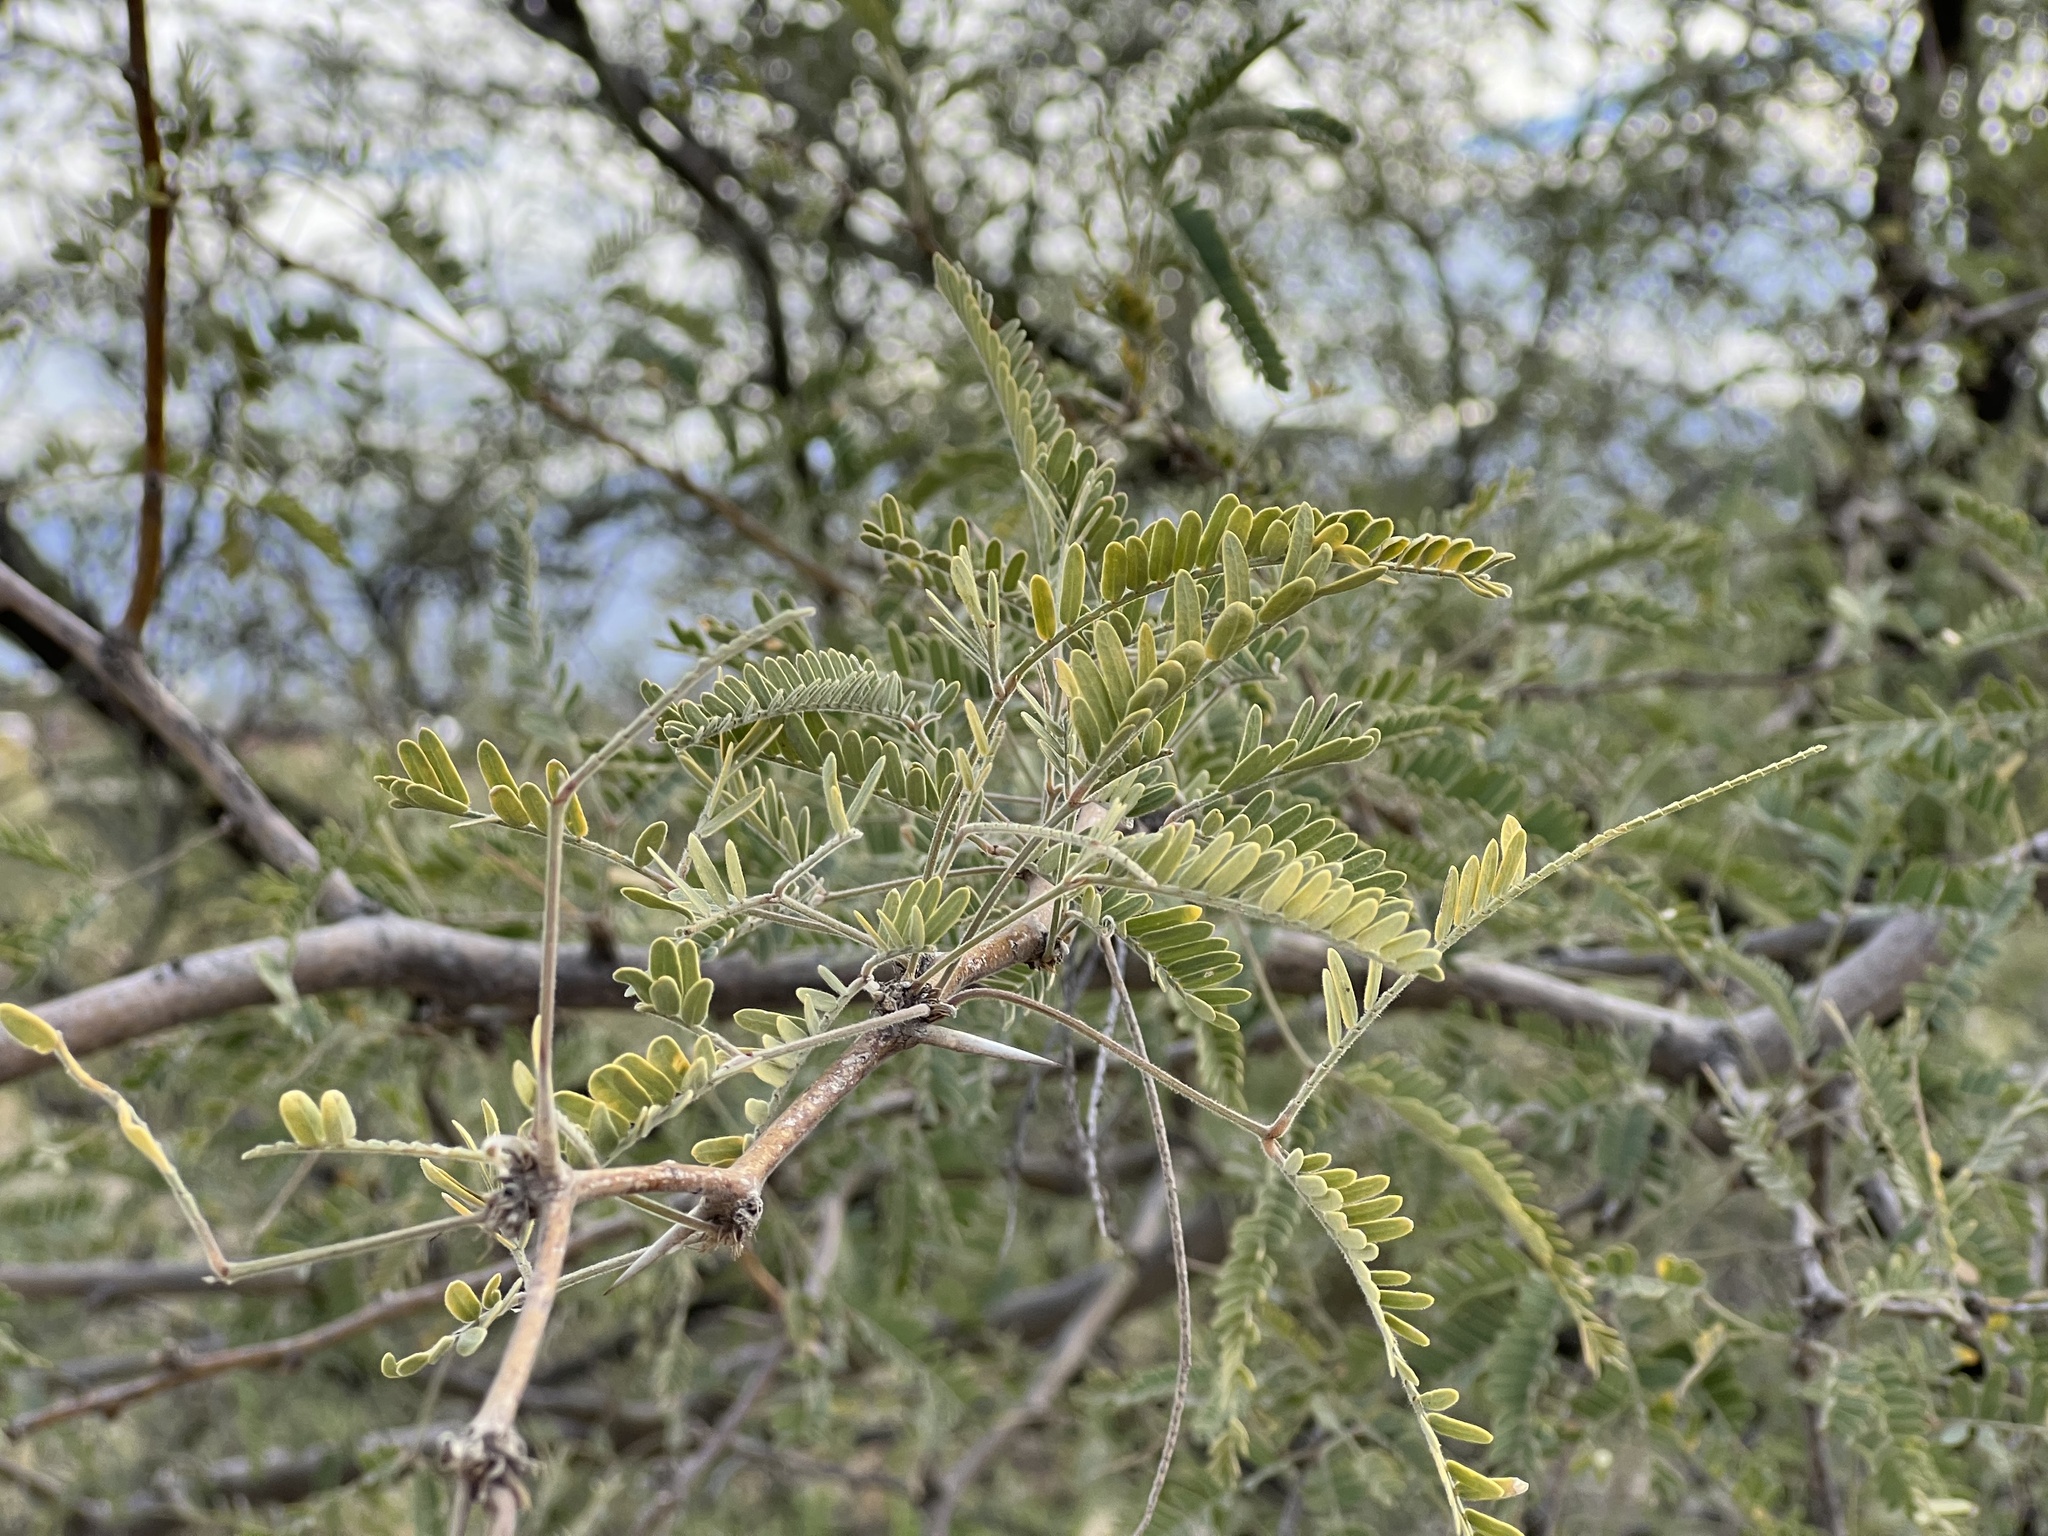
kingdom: Plantae
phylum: Tracheophyta
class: Magnoliopsida
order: Fabales
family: Fabaceae
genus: Prosopis
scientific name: Prosopis velutina
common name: Velvet mesquite
